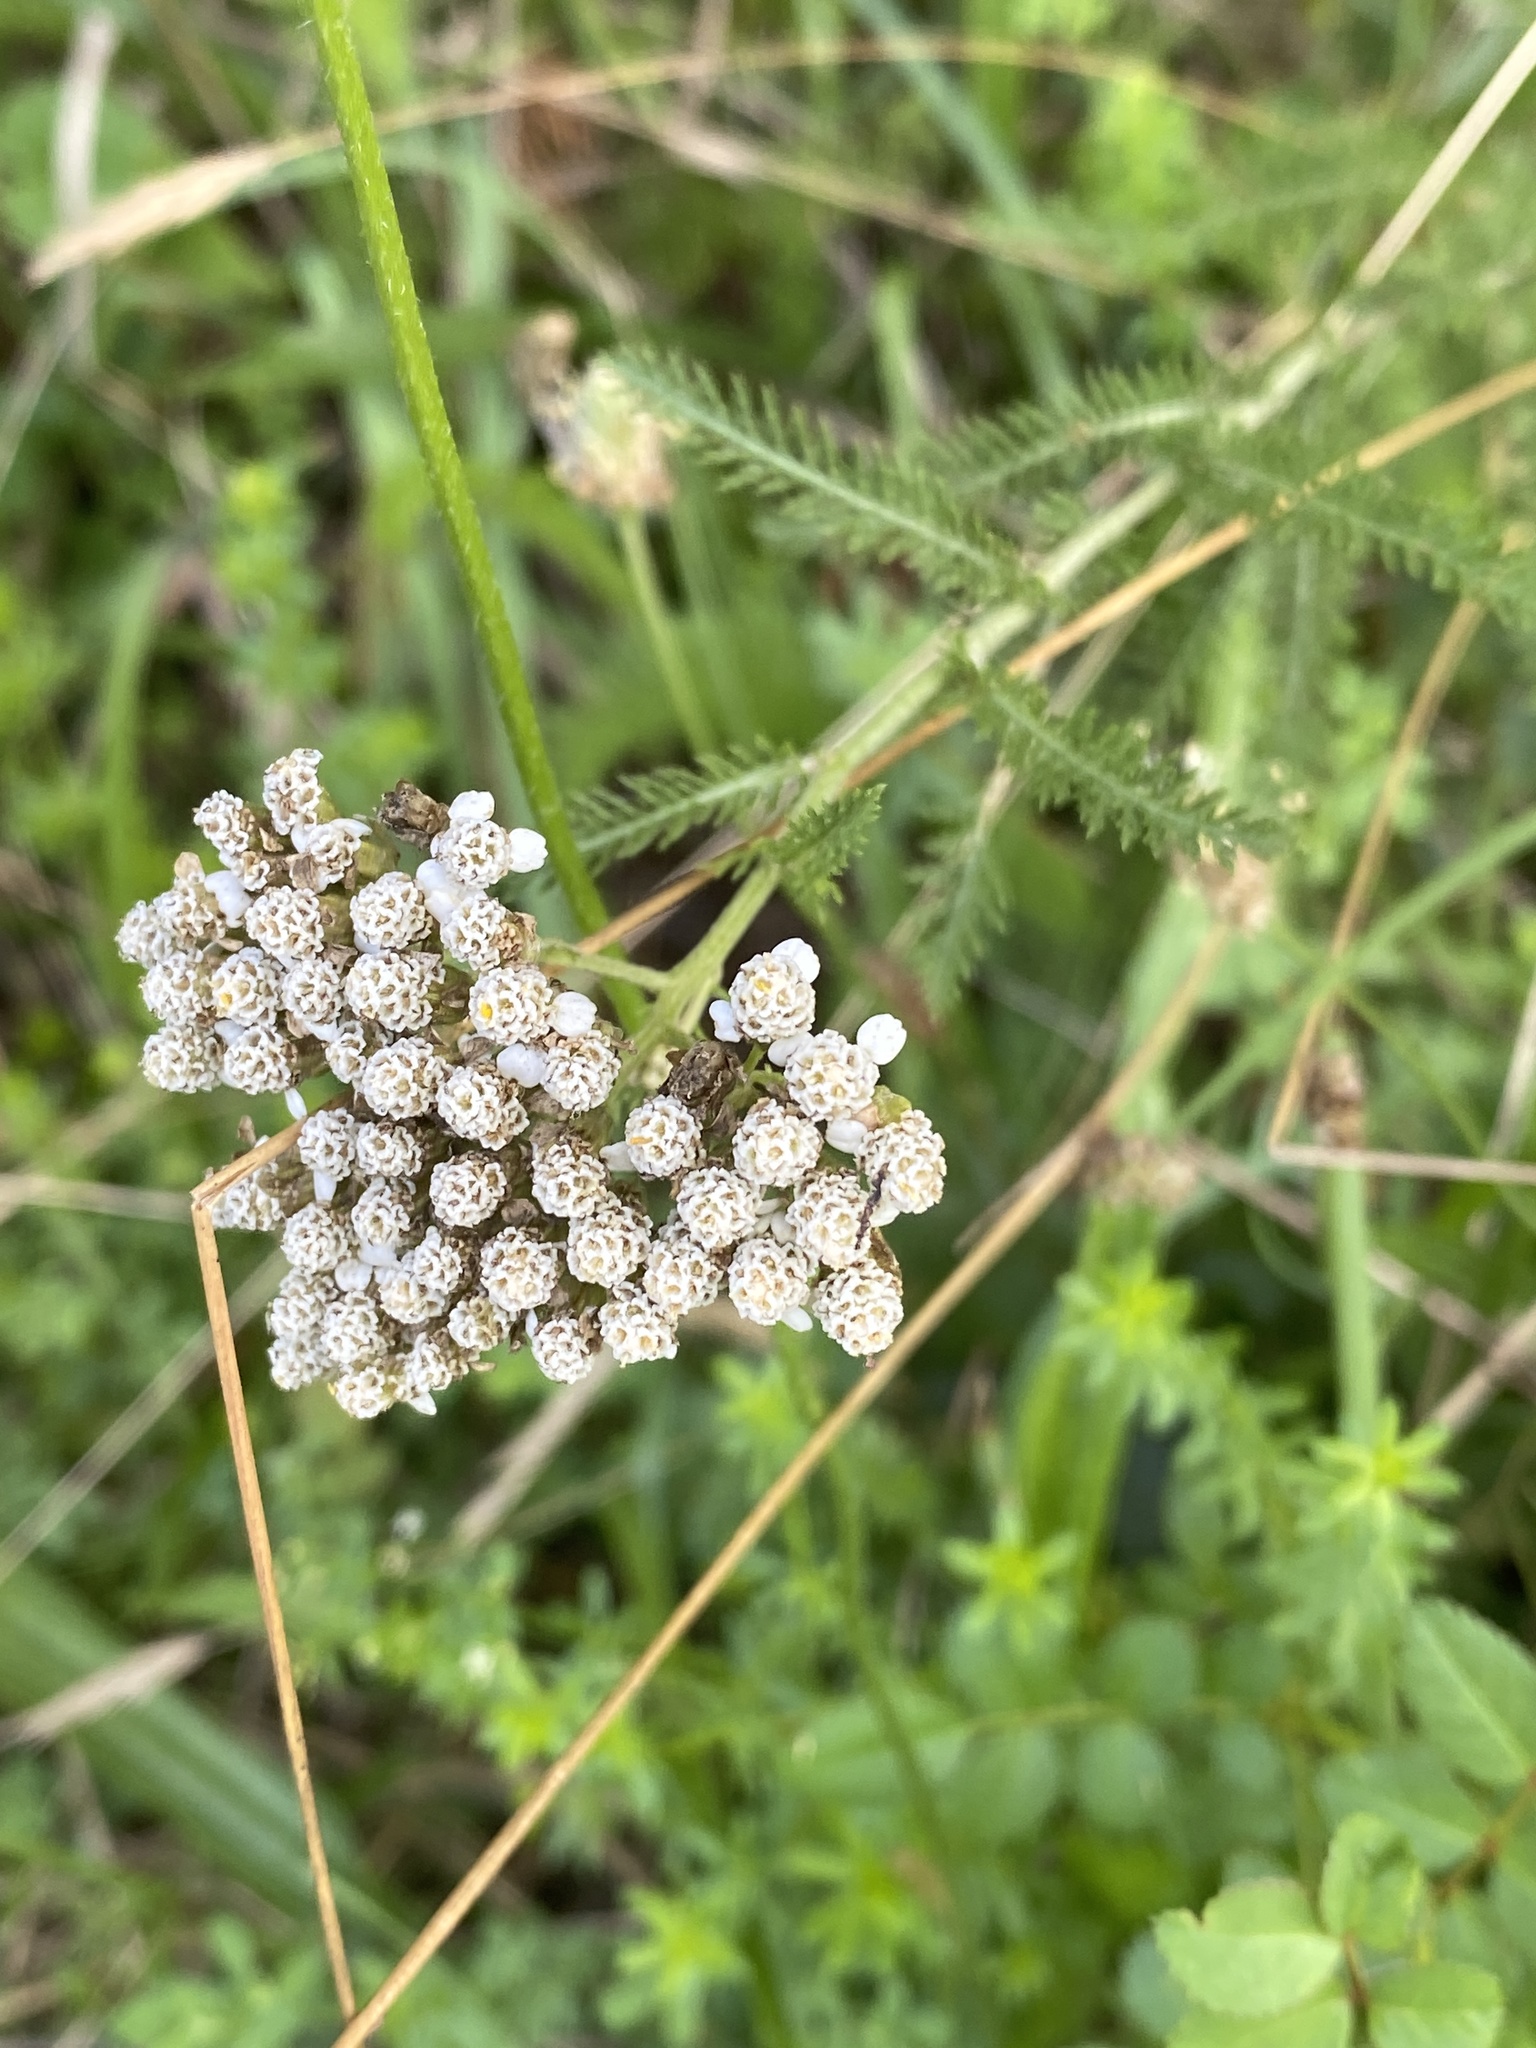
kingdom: Plantae
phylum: Tracheophyta
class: Magnoliopsida
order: Asterales
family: Asteraceae
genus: Achillea
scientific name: Achillea millefolium
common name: Yarrow
